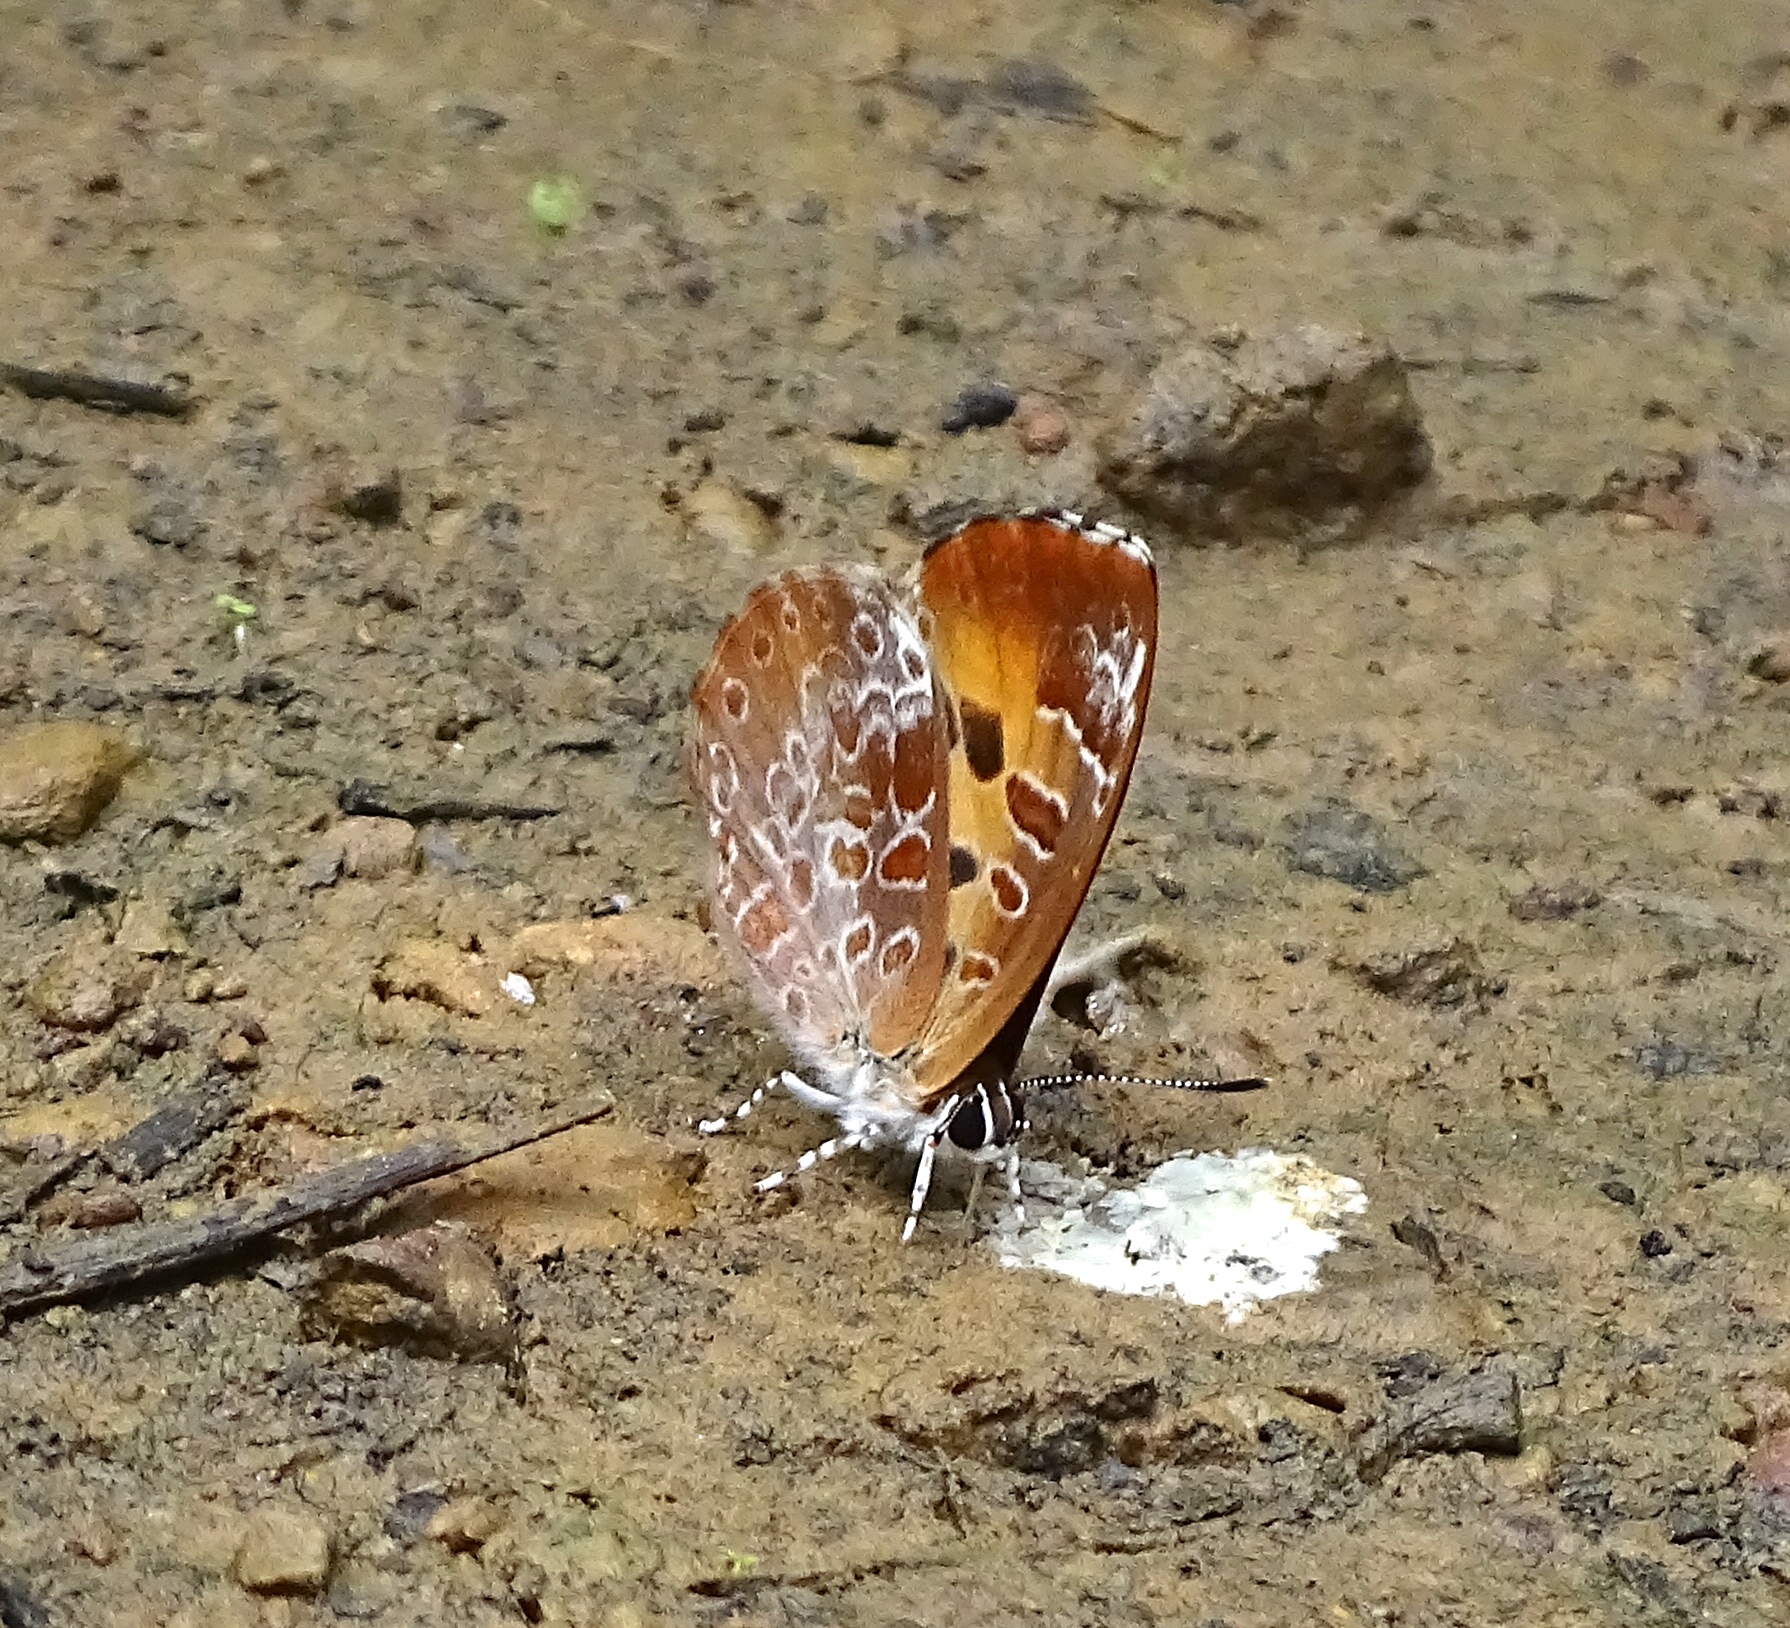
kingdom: Animalia
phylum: Arthropoda
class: Insecta
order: Lepidoptera
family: Lycaenidae
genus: Feniseca
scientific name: Feniseca tarquinius
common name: Harvester
